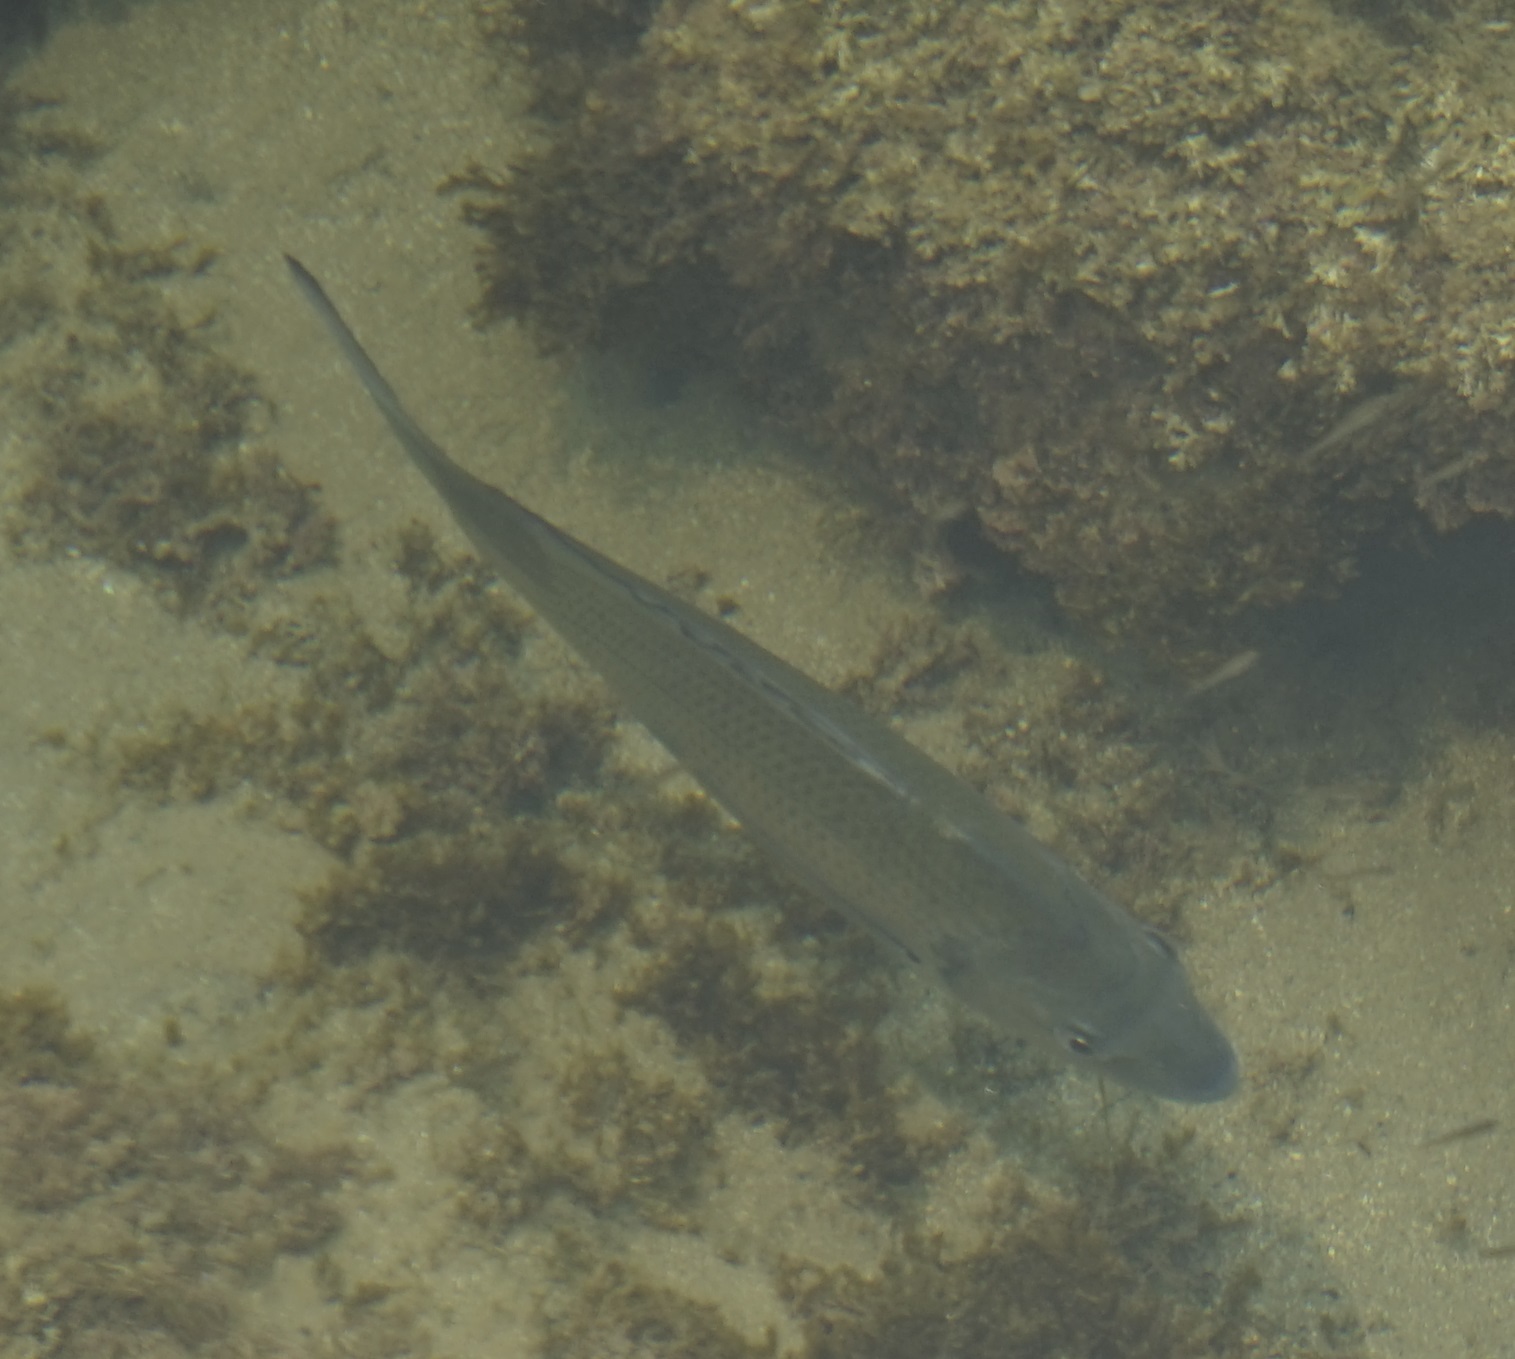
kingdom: Animalia
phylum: Chordata
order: Perciformes
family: Sparidae
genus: Acanthopagrus
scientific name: Acanthopagrus australis
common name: Surf bream
